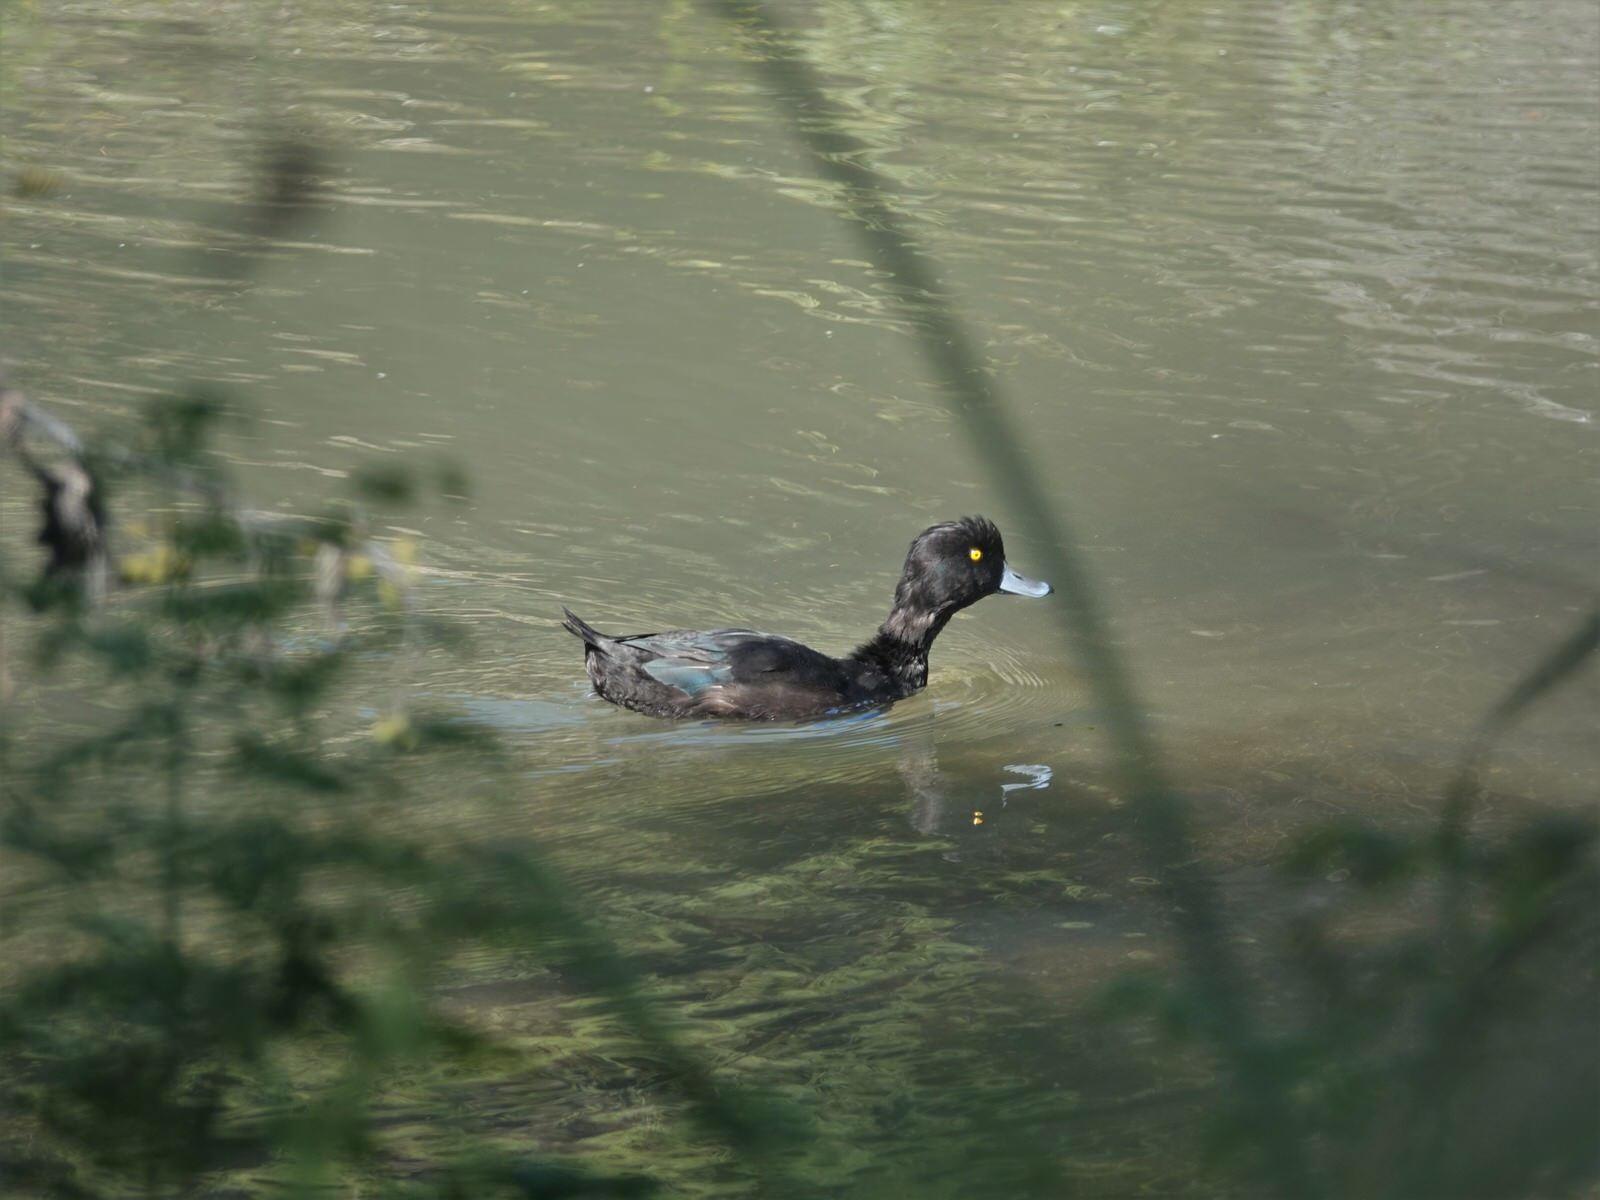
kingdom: Animalia
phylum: Chordata
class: Aves
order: Anseriformes
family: Anatidae
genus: Aythya
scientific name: Aythya novaeseelandiae
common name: New zealand scaup
